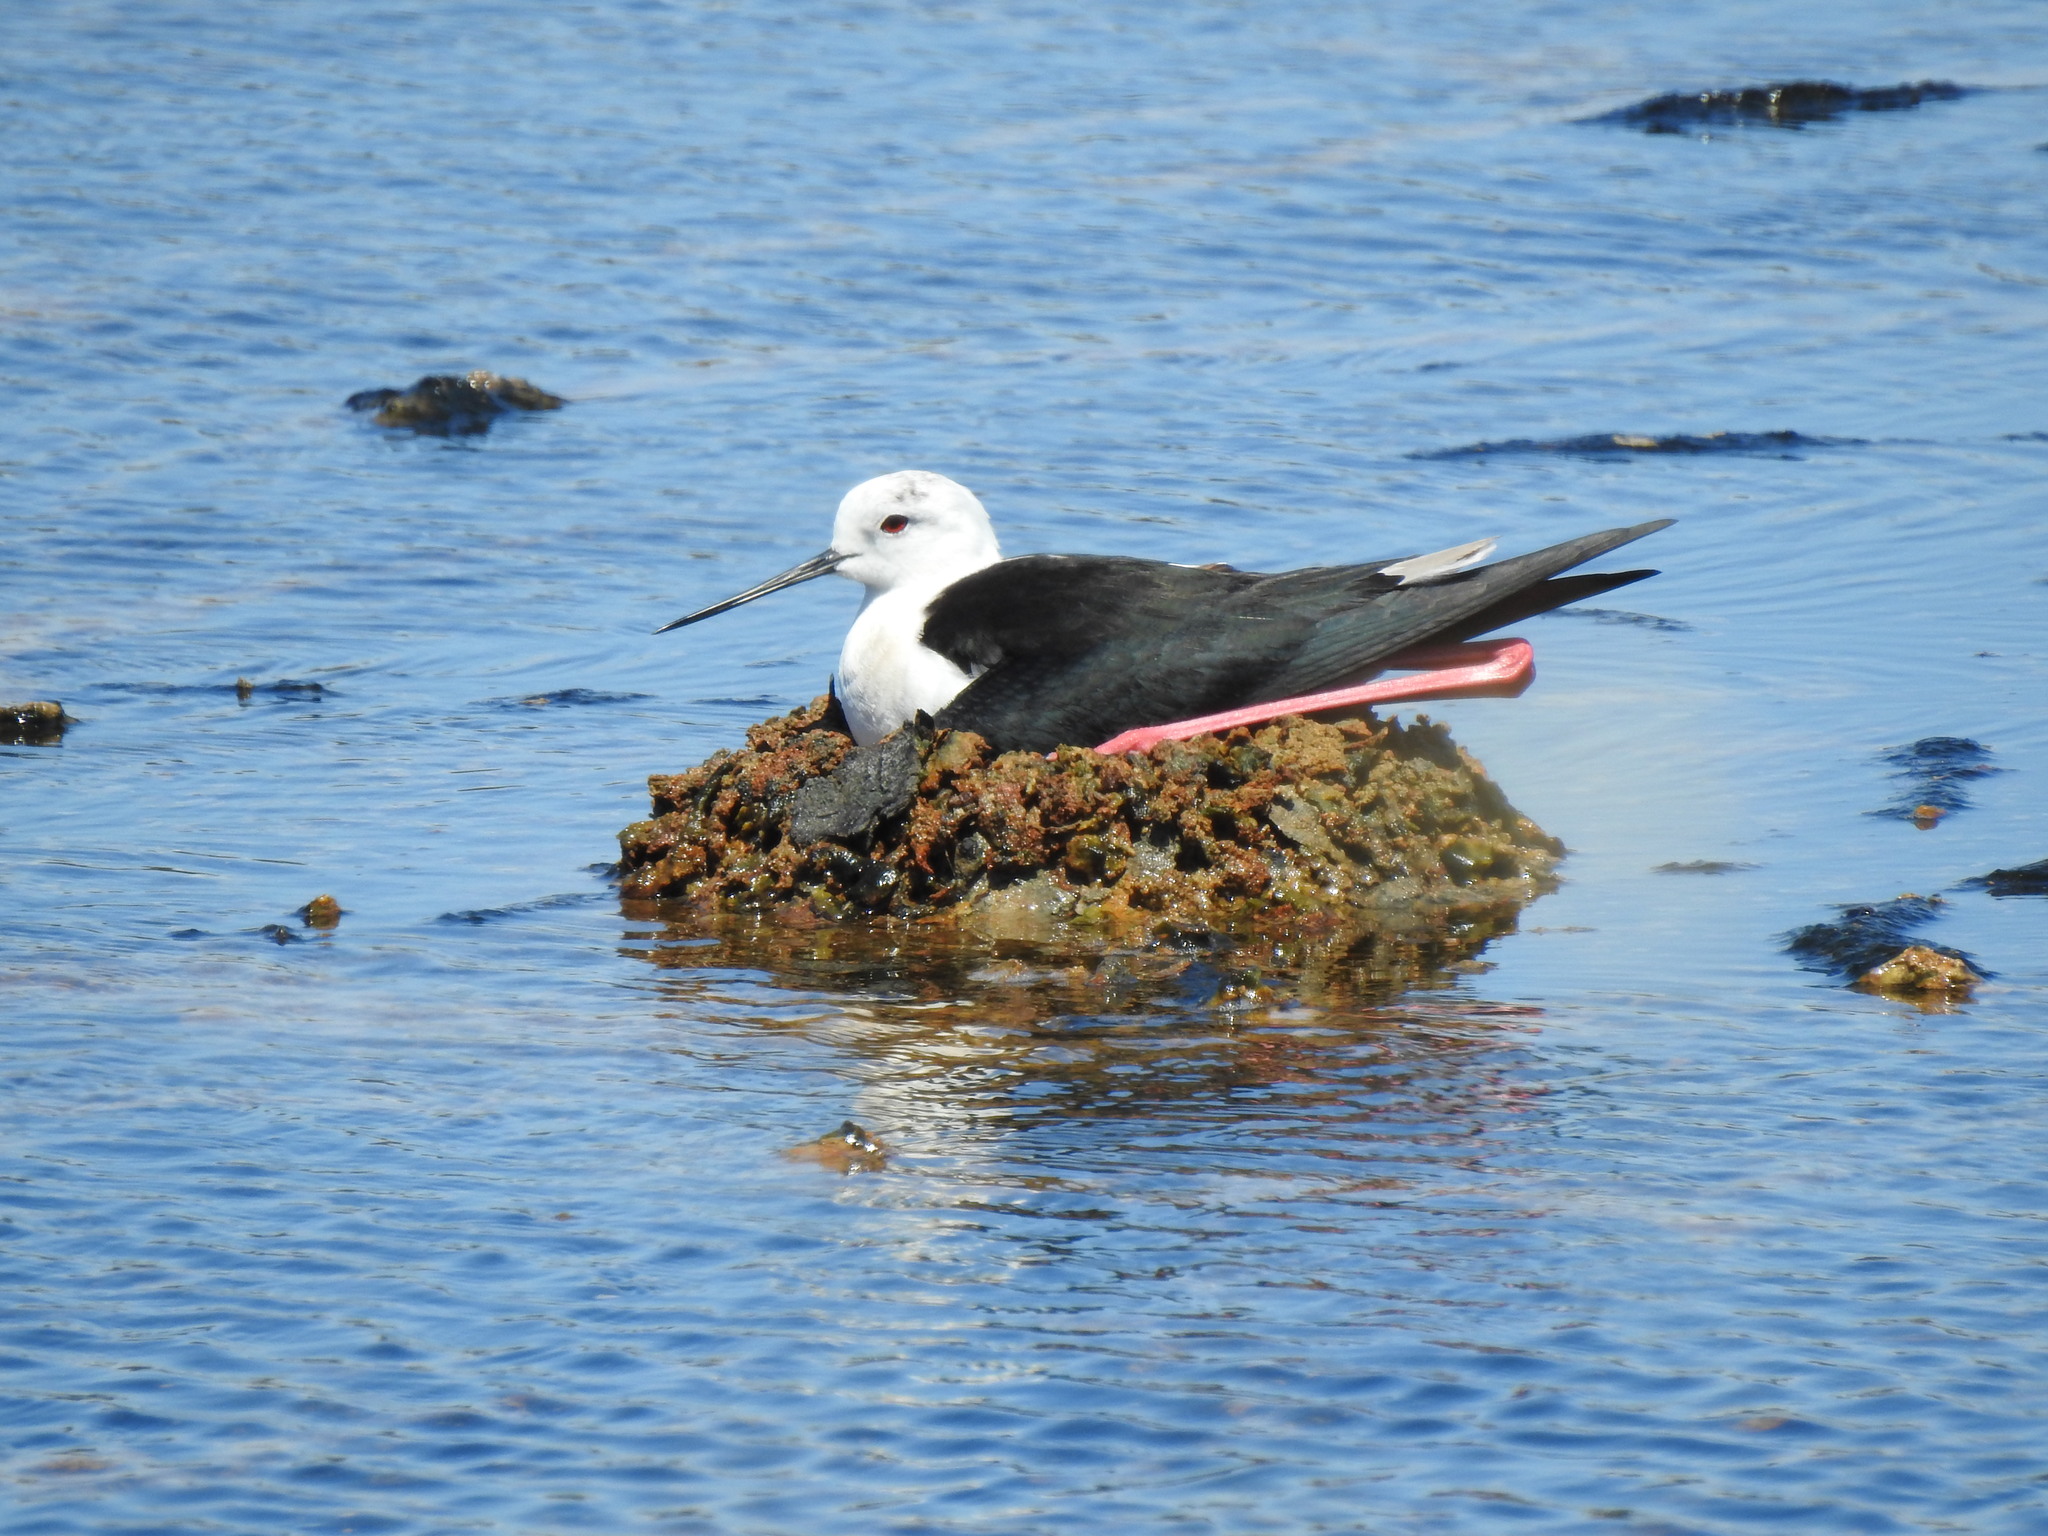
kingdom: Animalia
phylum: Chordata
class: Aves
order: Charadriiformes
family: Recurvirostridae
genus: Himantopus
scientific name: Himantopus himantopus
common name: Black-winged stilt
